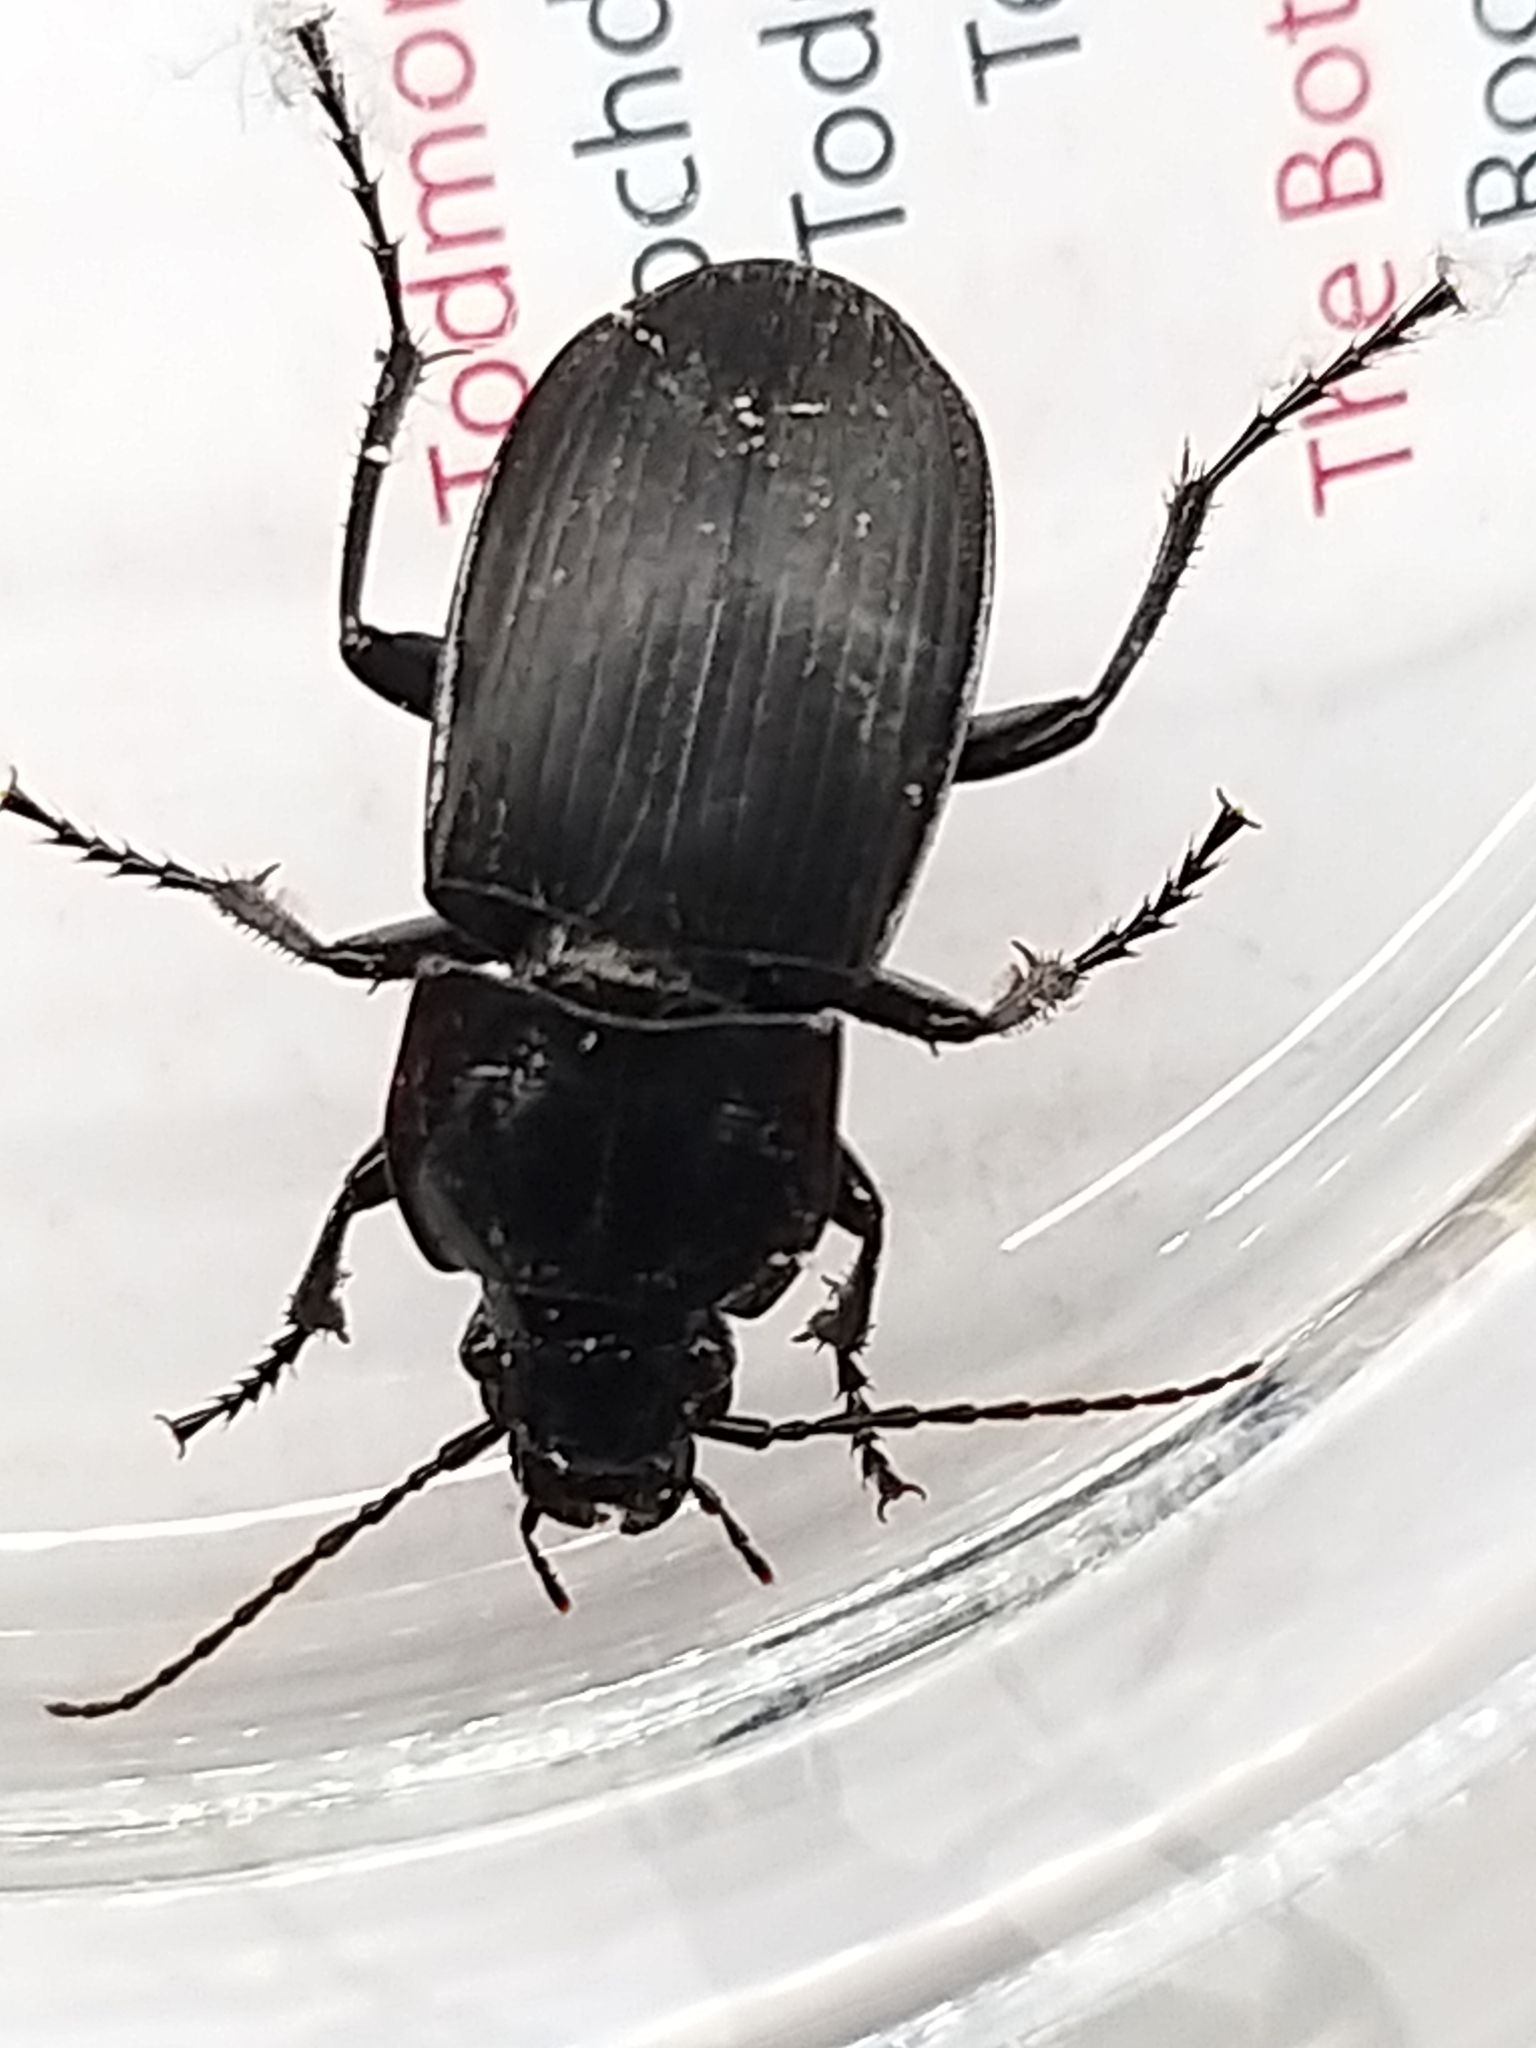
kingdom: Animalia
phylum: Arthropoda
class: Insecta
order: Coleoptera
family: Carabidae
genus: Abax
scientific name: Abax parallelepipedus
